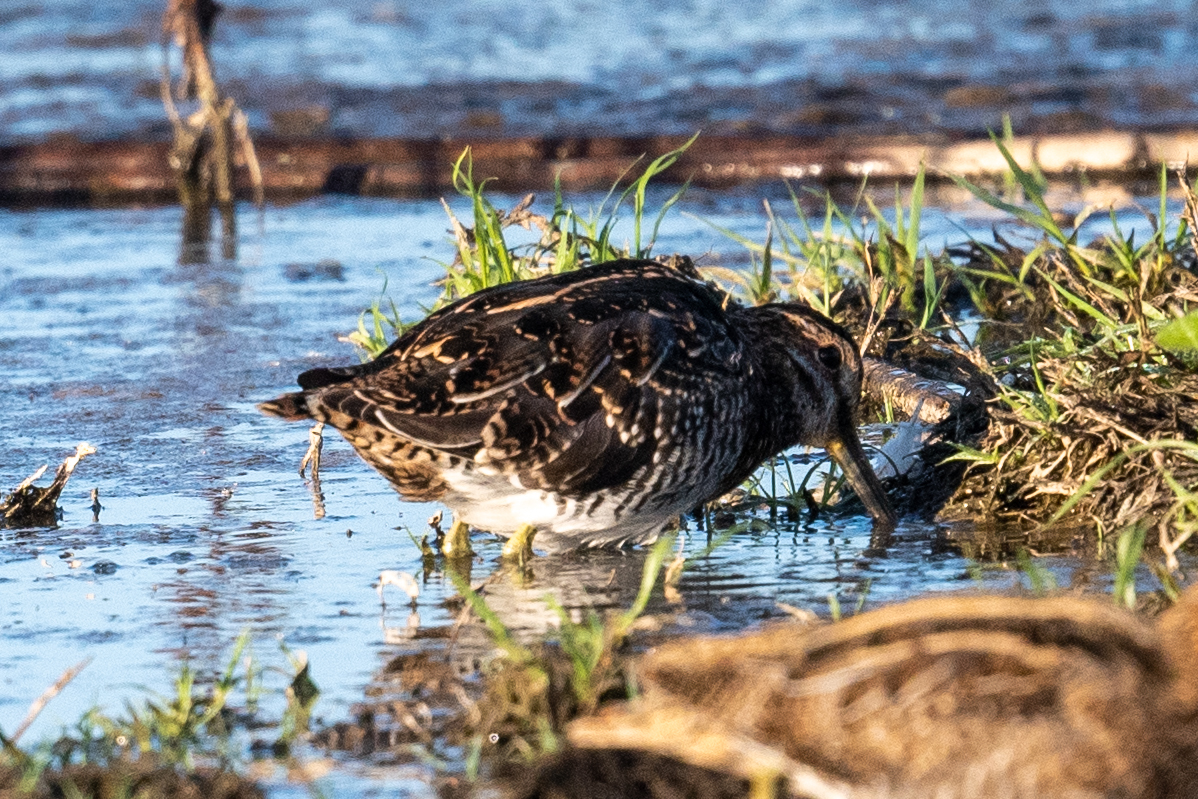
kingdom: Animalia
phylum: Chordata
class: Aves
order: Charadriiformes
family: Scolopacidae
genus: Gallinago
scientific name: Gallinago delicata
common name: Wilson's snipe
